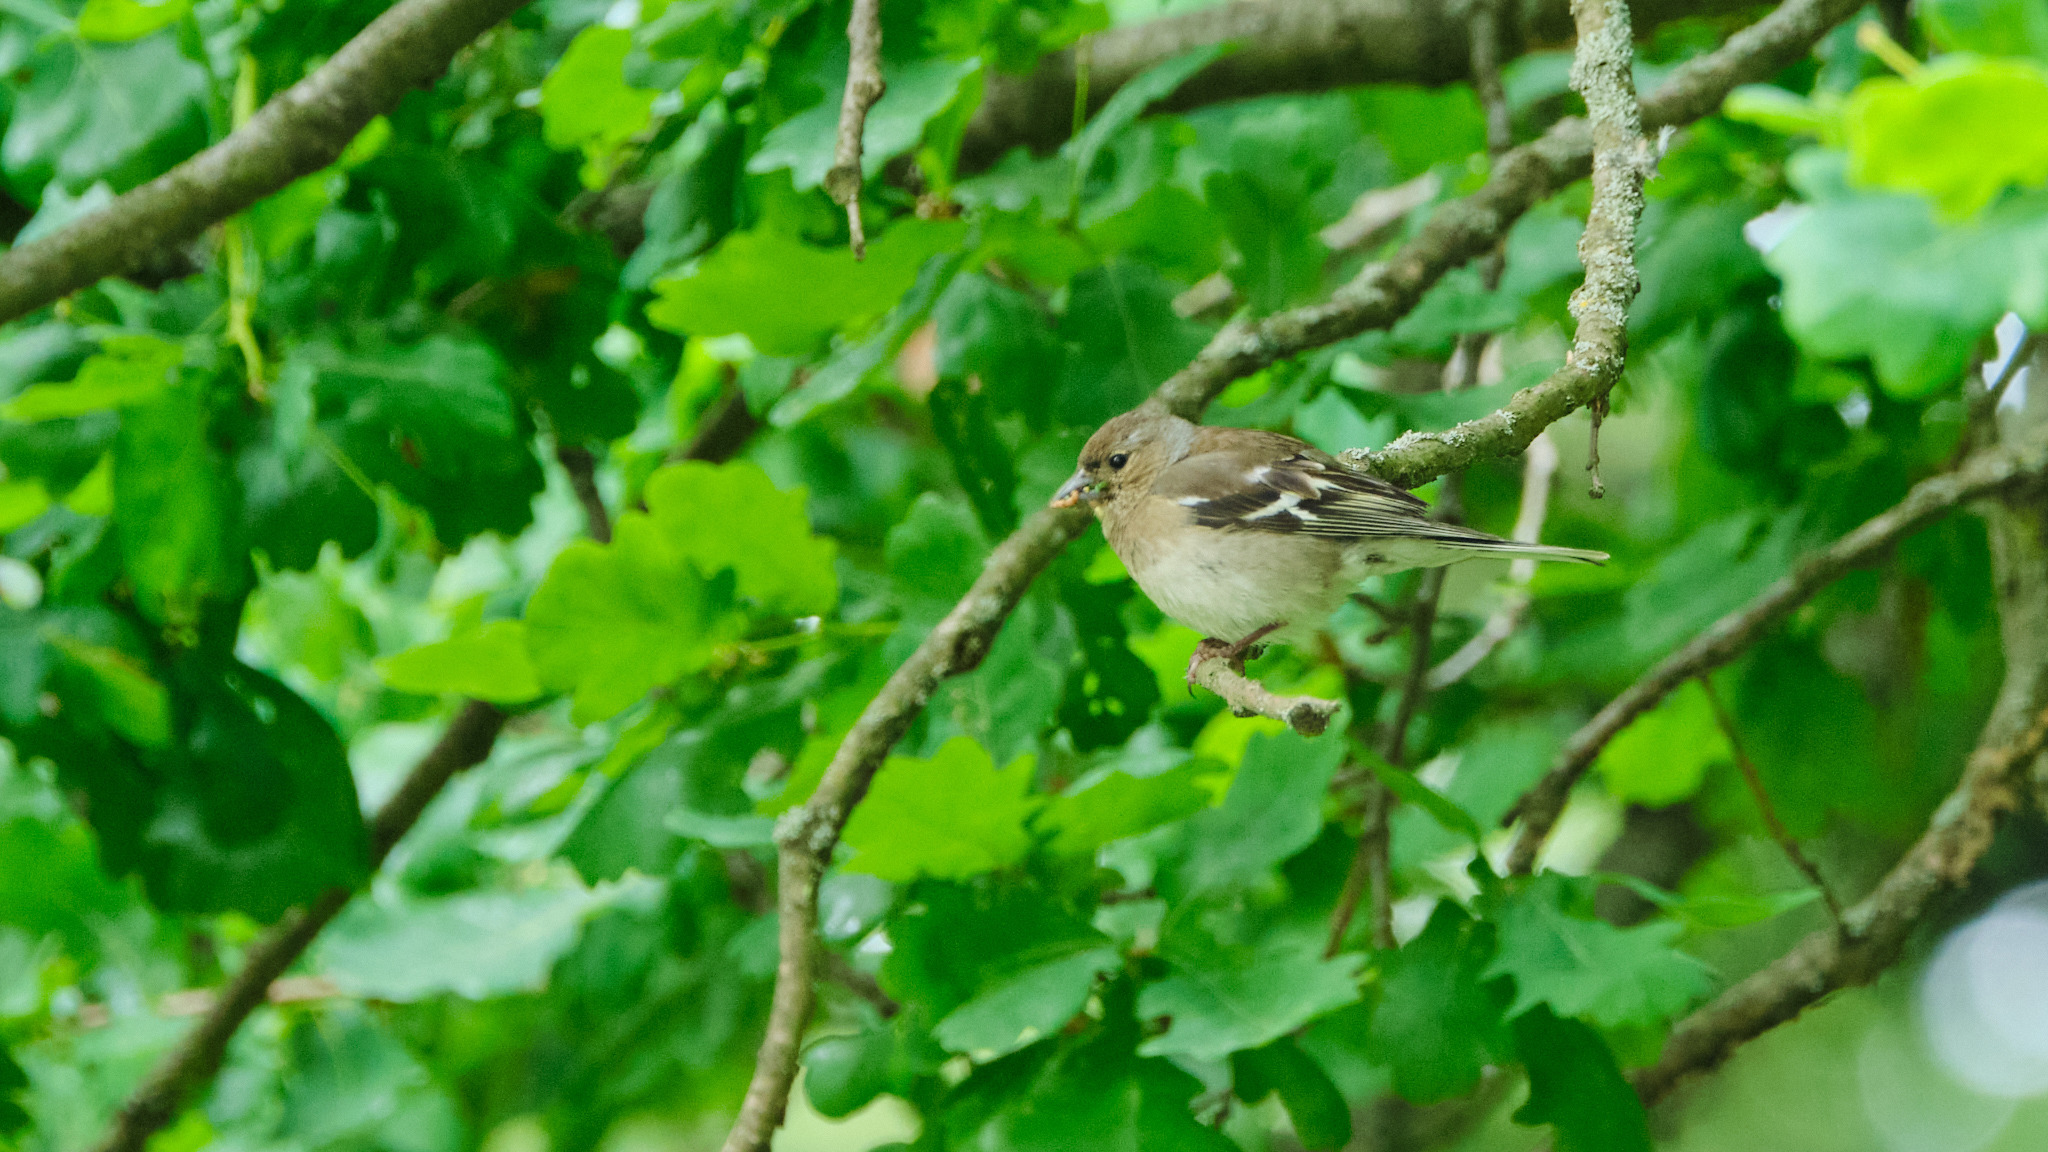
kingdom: Animalia
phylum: Chordata
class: Aves
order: Passeriformes
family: Fringillidae
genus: Fringilla
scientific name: Fringilla coelebs
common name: Common chaffinch
